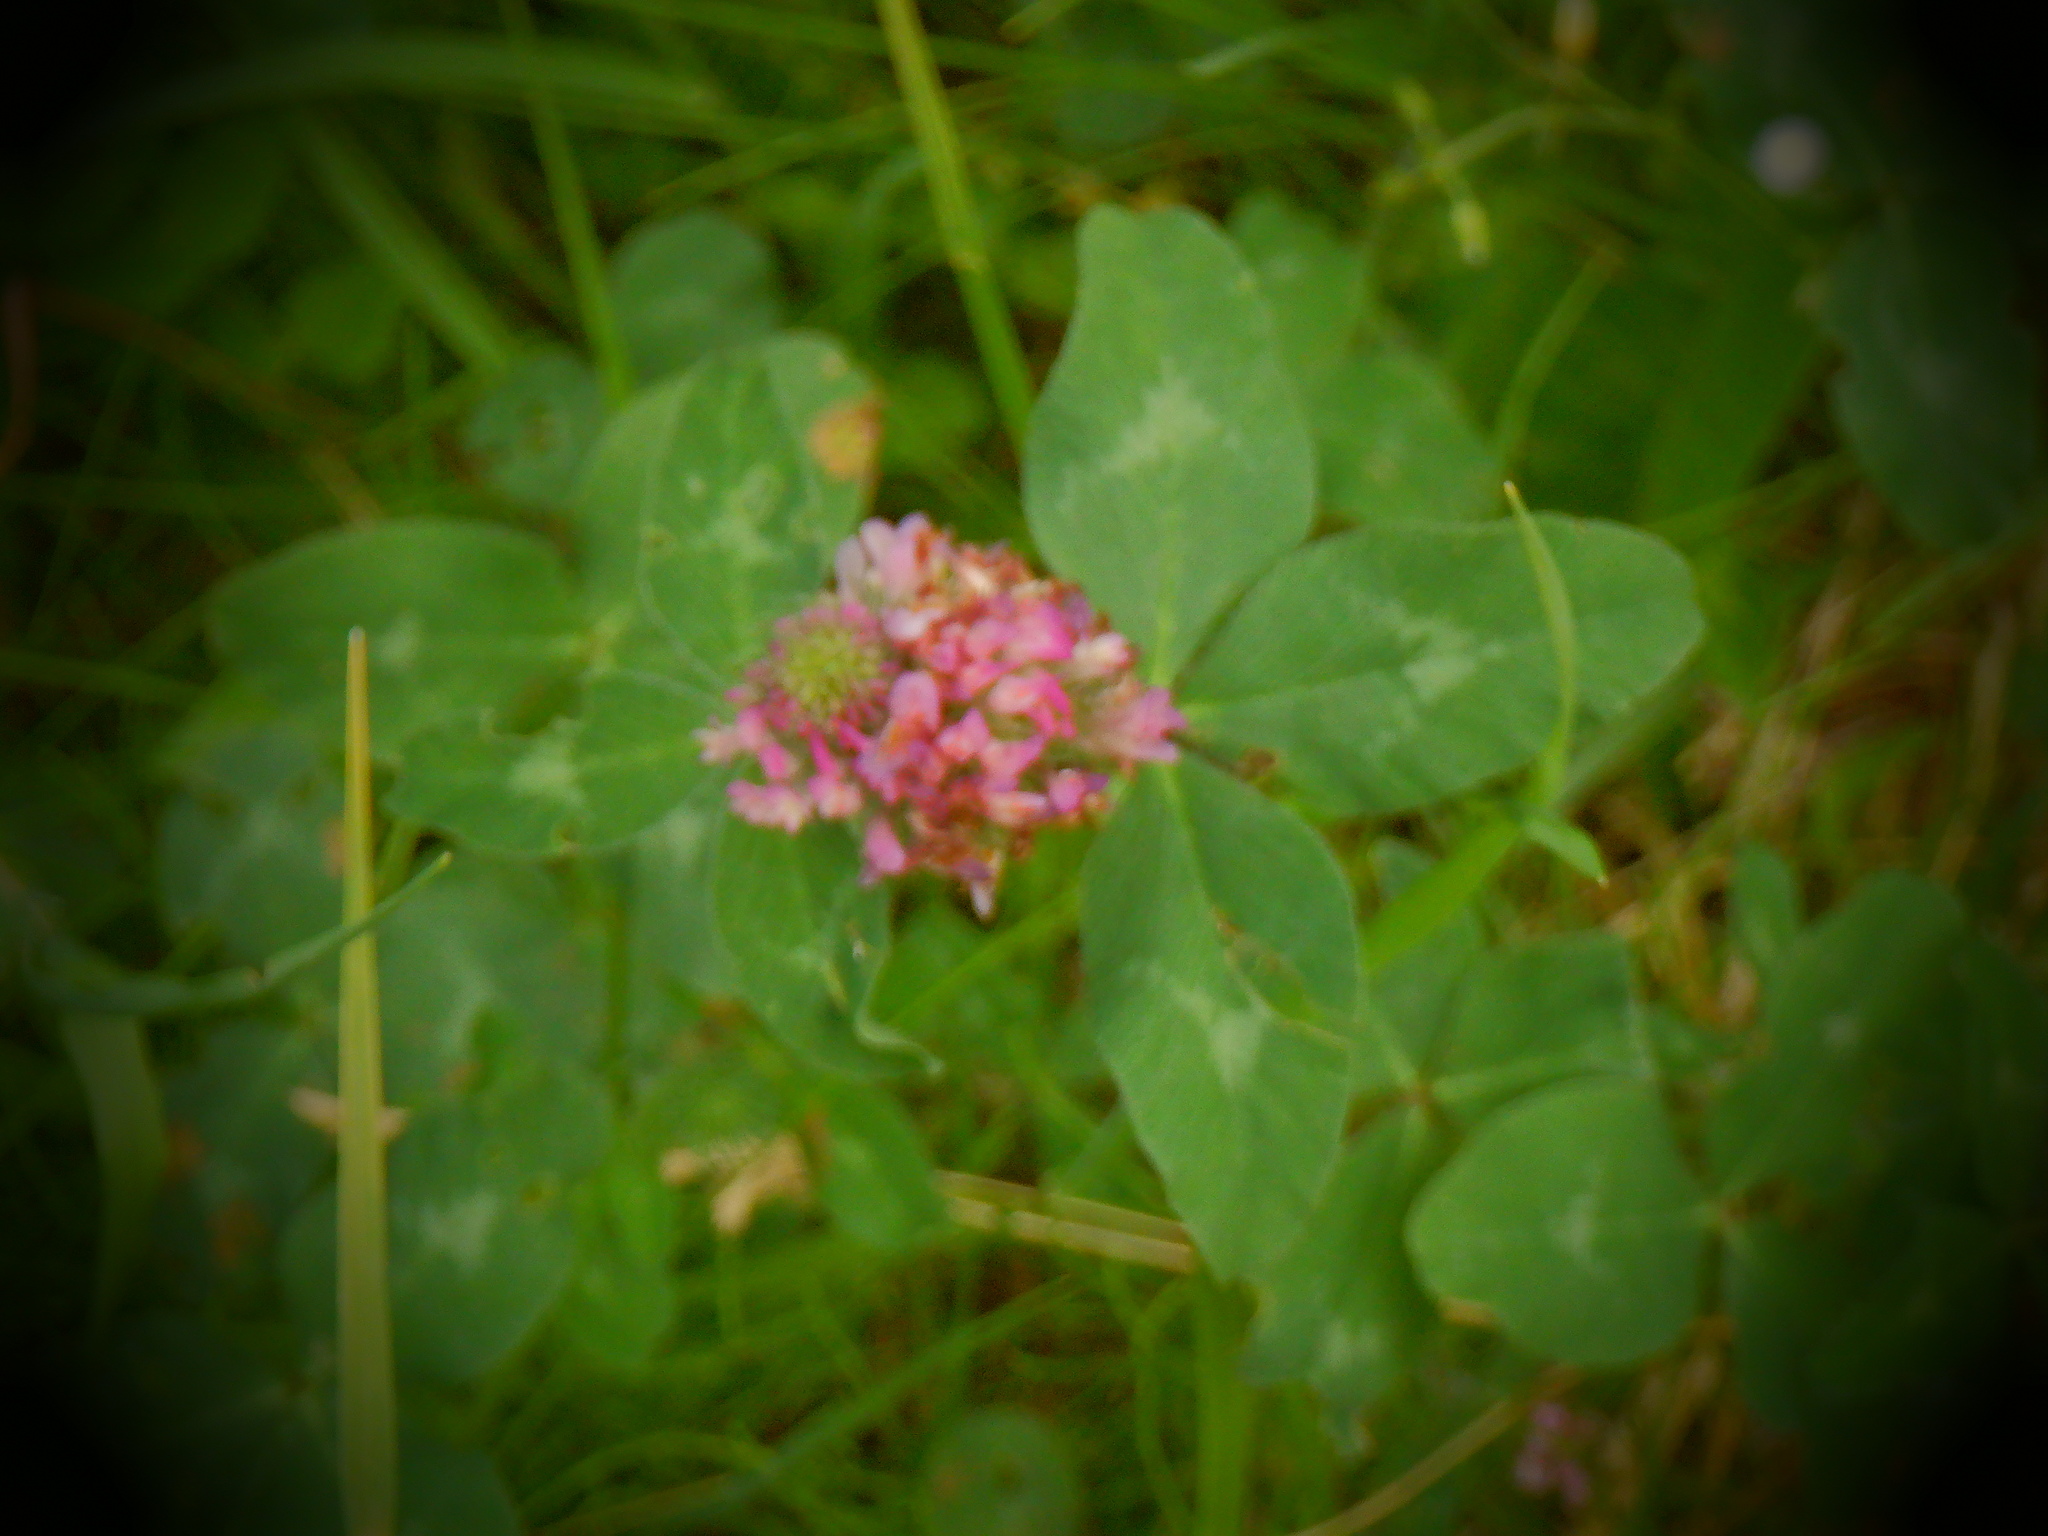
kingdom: Plantae
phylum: Tracheophyta
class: Magnoliopsida
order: Fabales
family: Fabaceae
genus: Trifolium
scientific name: Trifolium pratense
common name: Red clover
